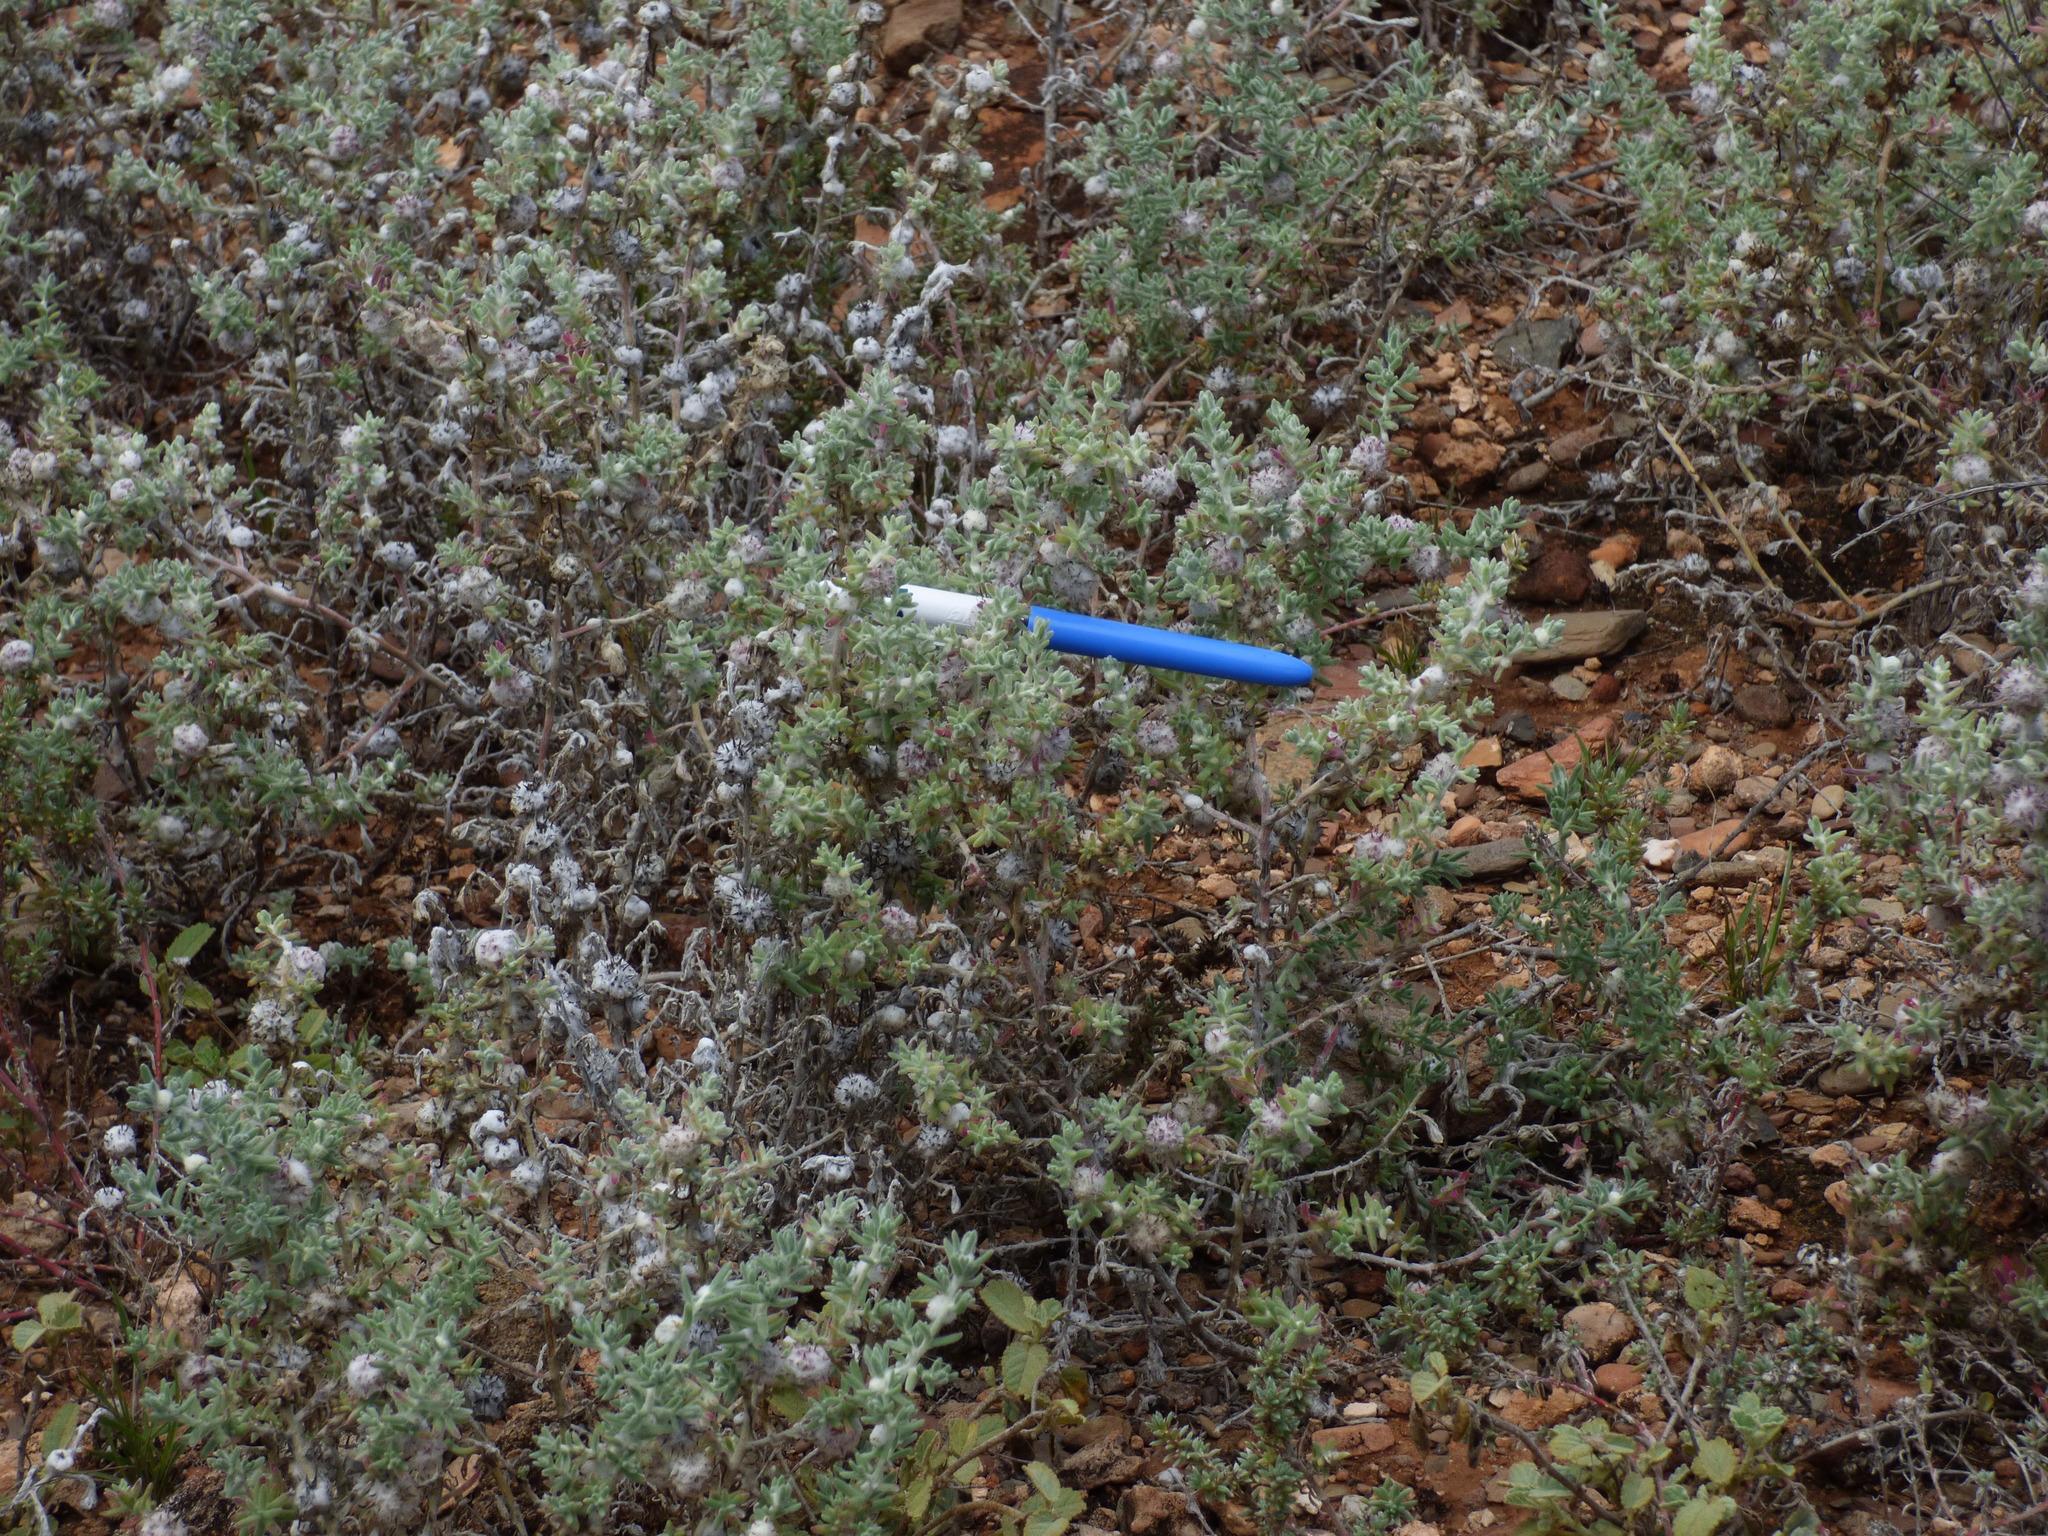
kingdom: Plantae
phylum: Tracheophyta
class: Magnoliopsida
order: Caryophyllales
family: Amaranthaceae
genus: Dissocarpus
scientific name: Dissocarpus paradoxus
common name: Bur-saltbush
